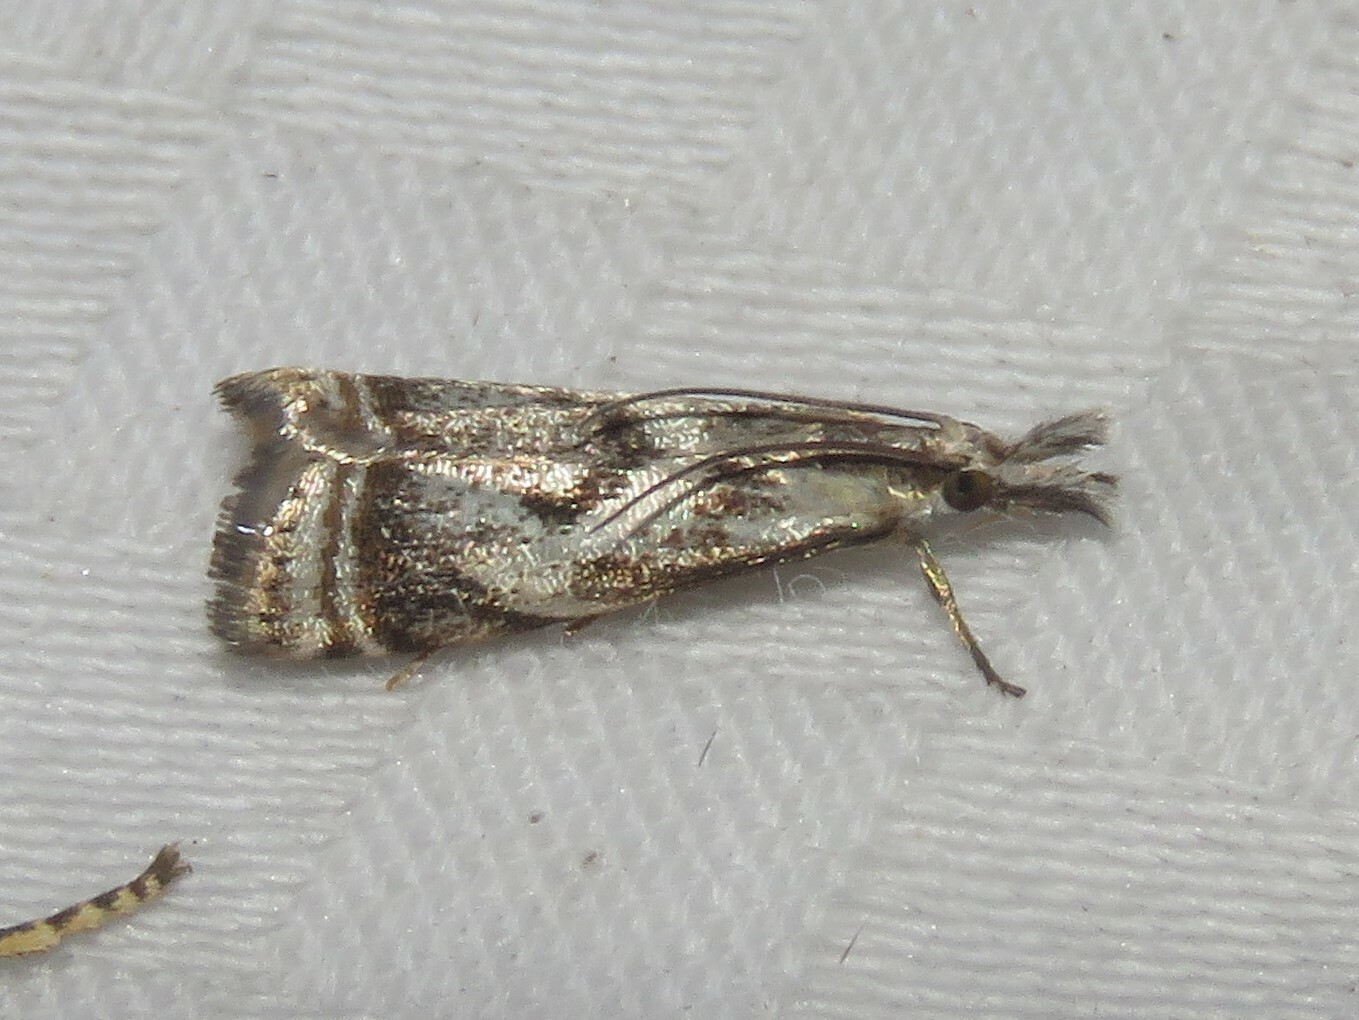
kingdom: Animalia
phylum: Arthropoda
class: Insecta
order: Lepidoptera
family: Crambidae
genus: Microcrambus
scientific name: Microcrambus elegans
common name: Elegant grass-veneer
